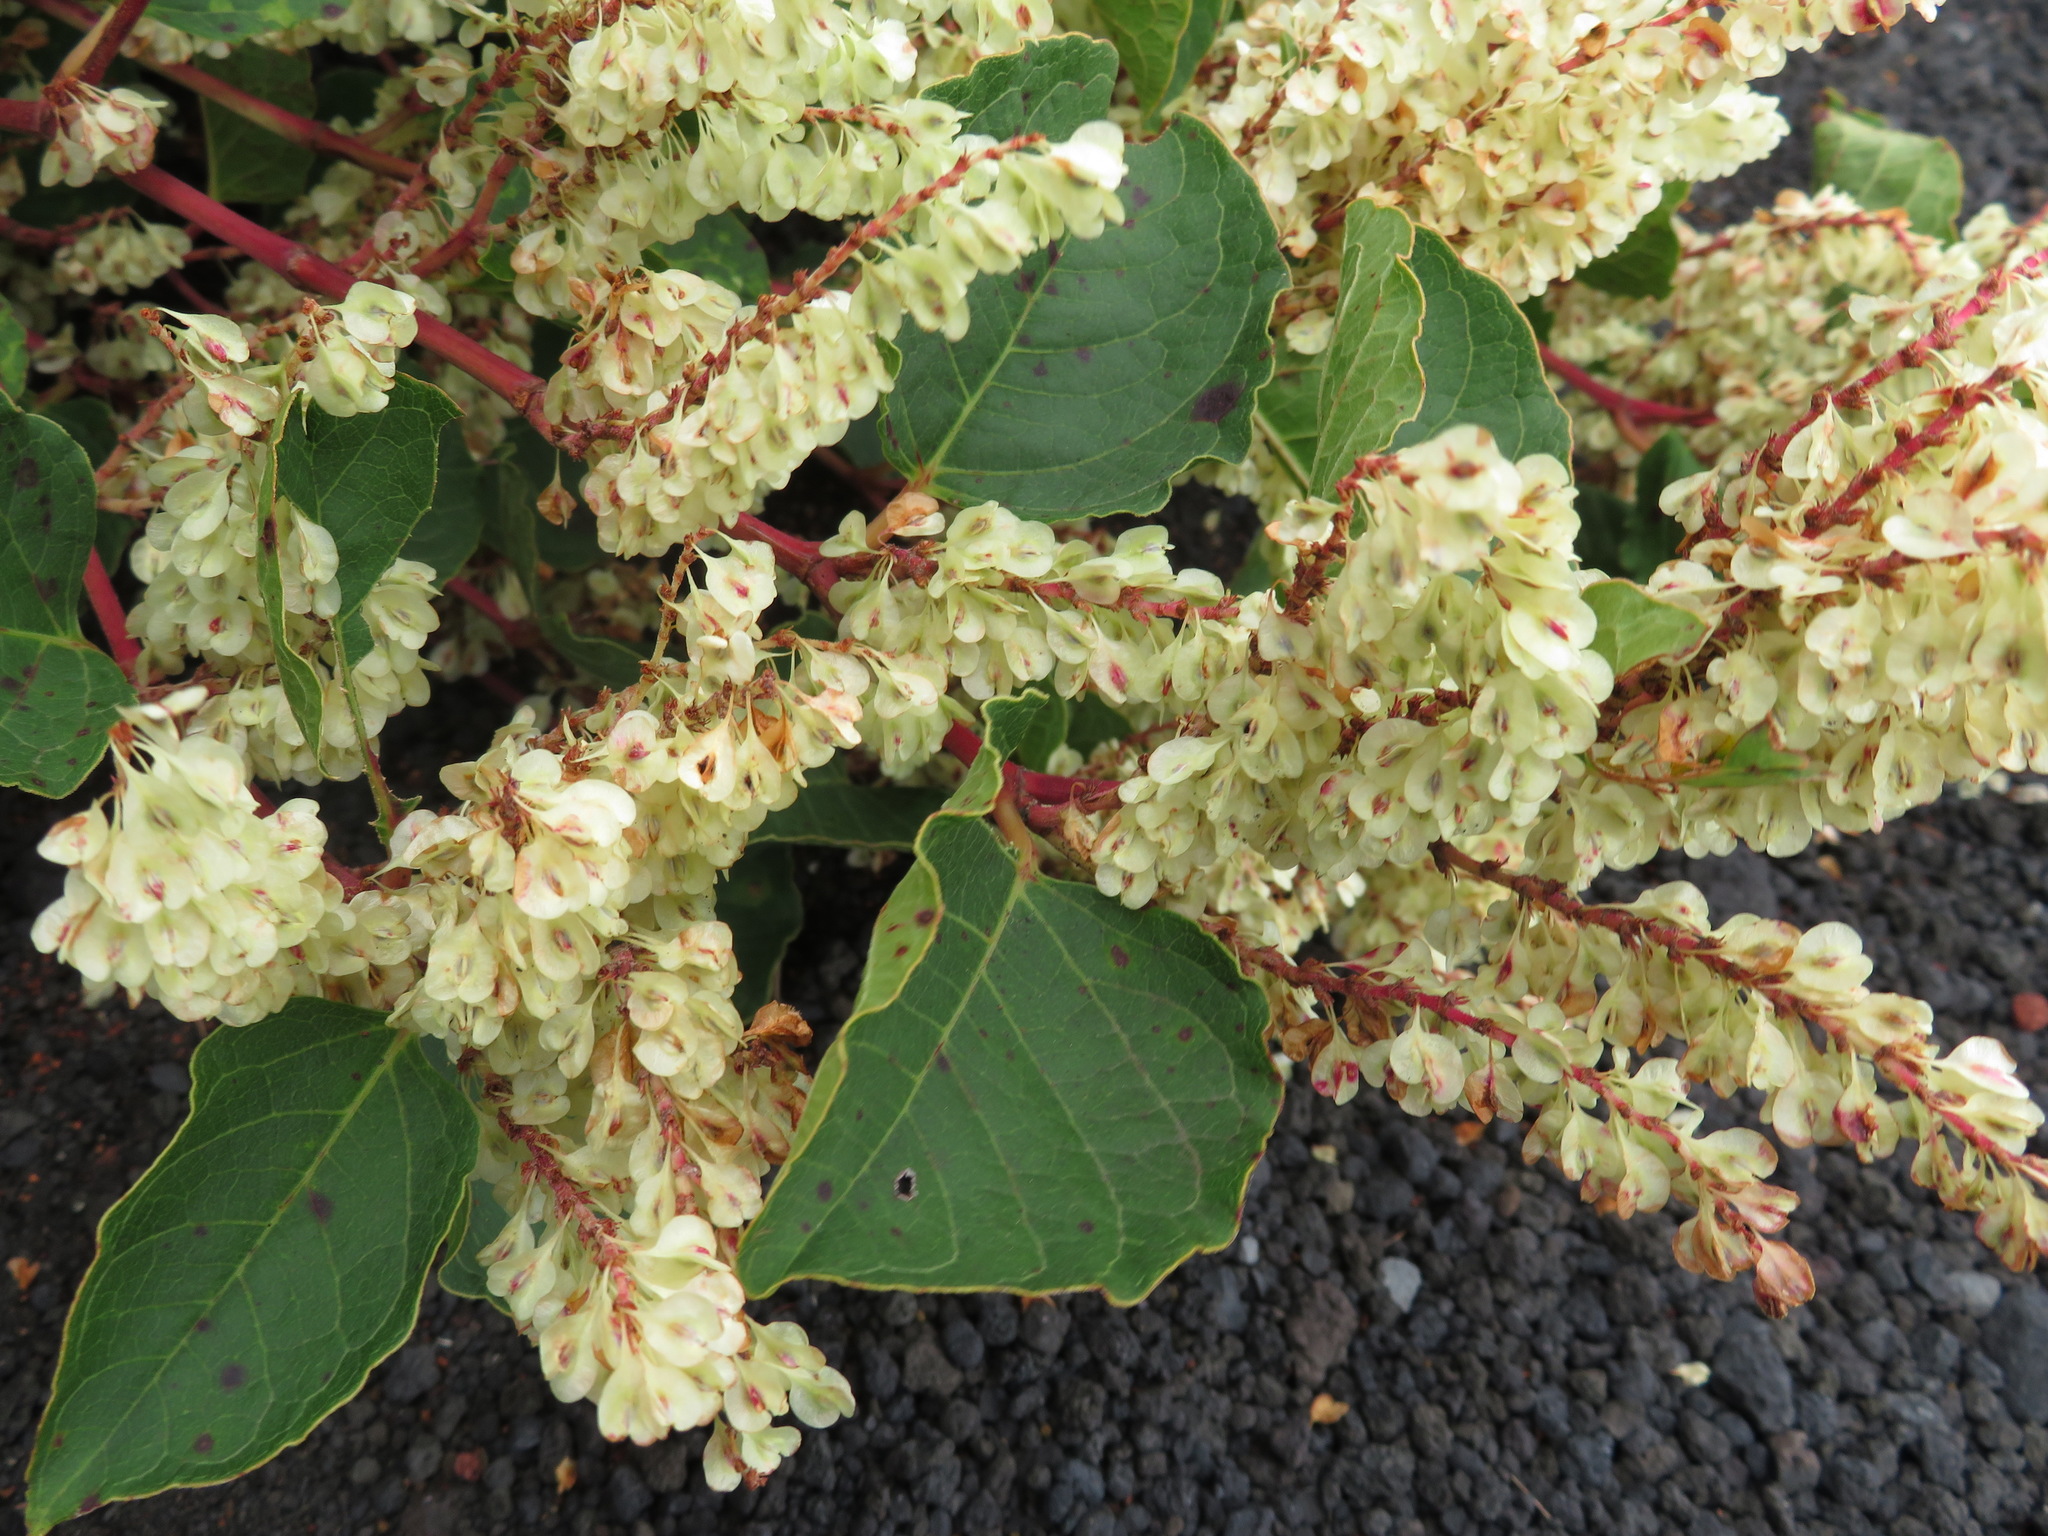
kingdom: Plantae
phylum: Tracheophyta
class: Magnoliopsida
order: Caryophyllales
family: Polygonaceae
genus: Reynoutria
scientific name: Reynoutria japonica
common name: Japanese knotweed
